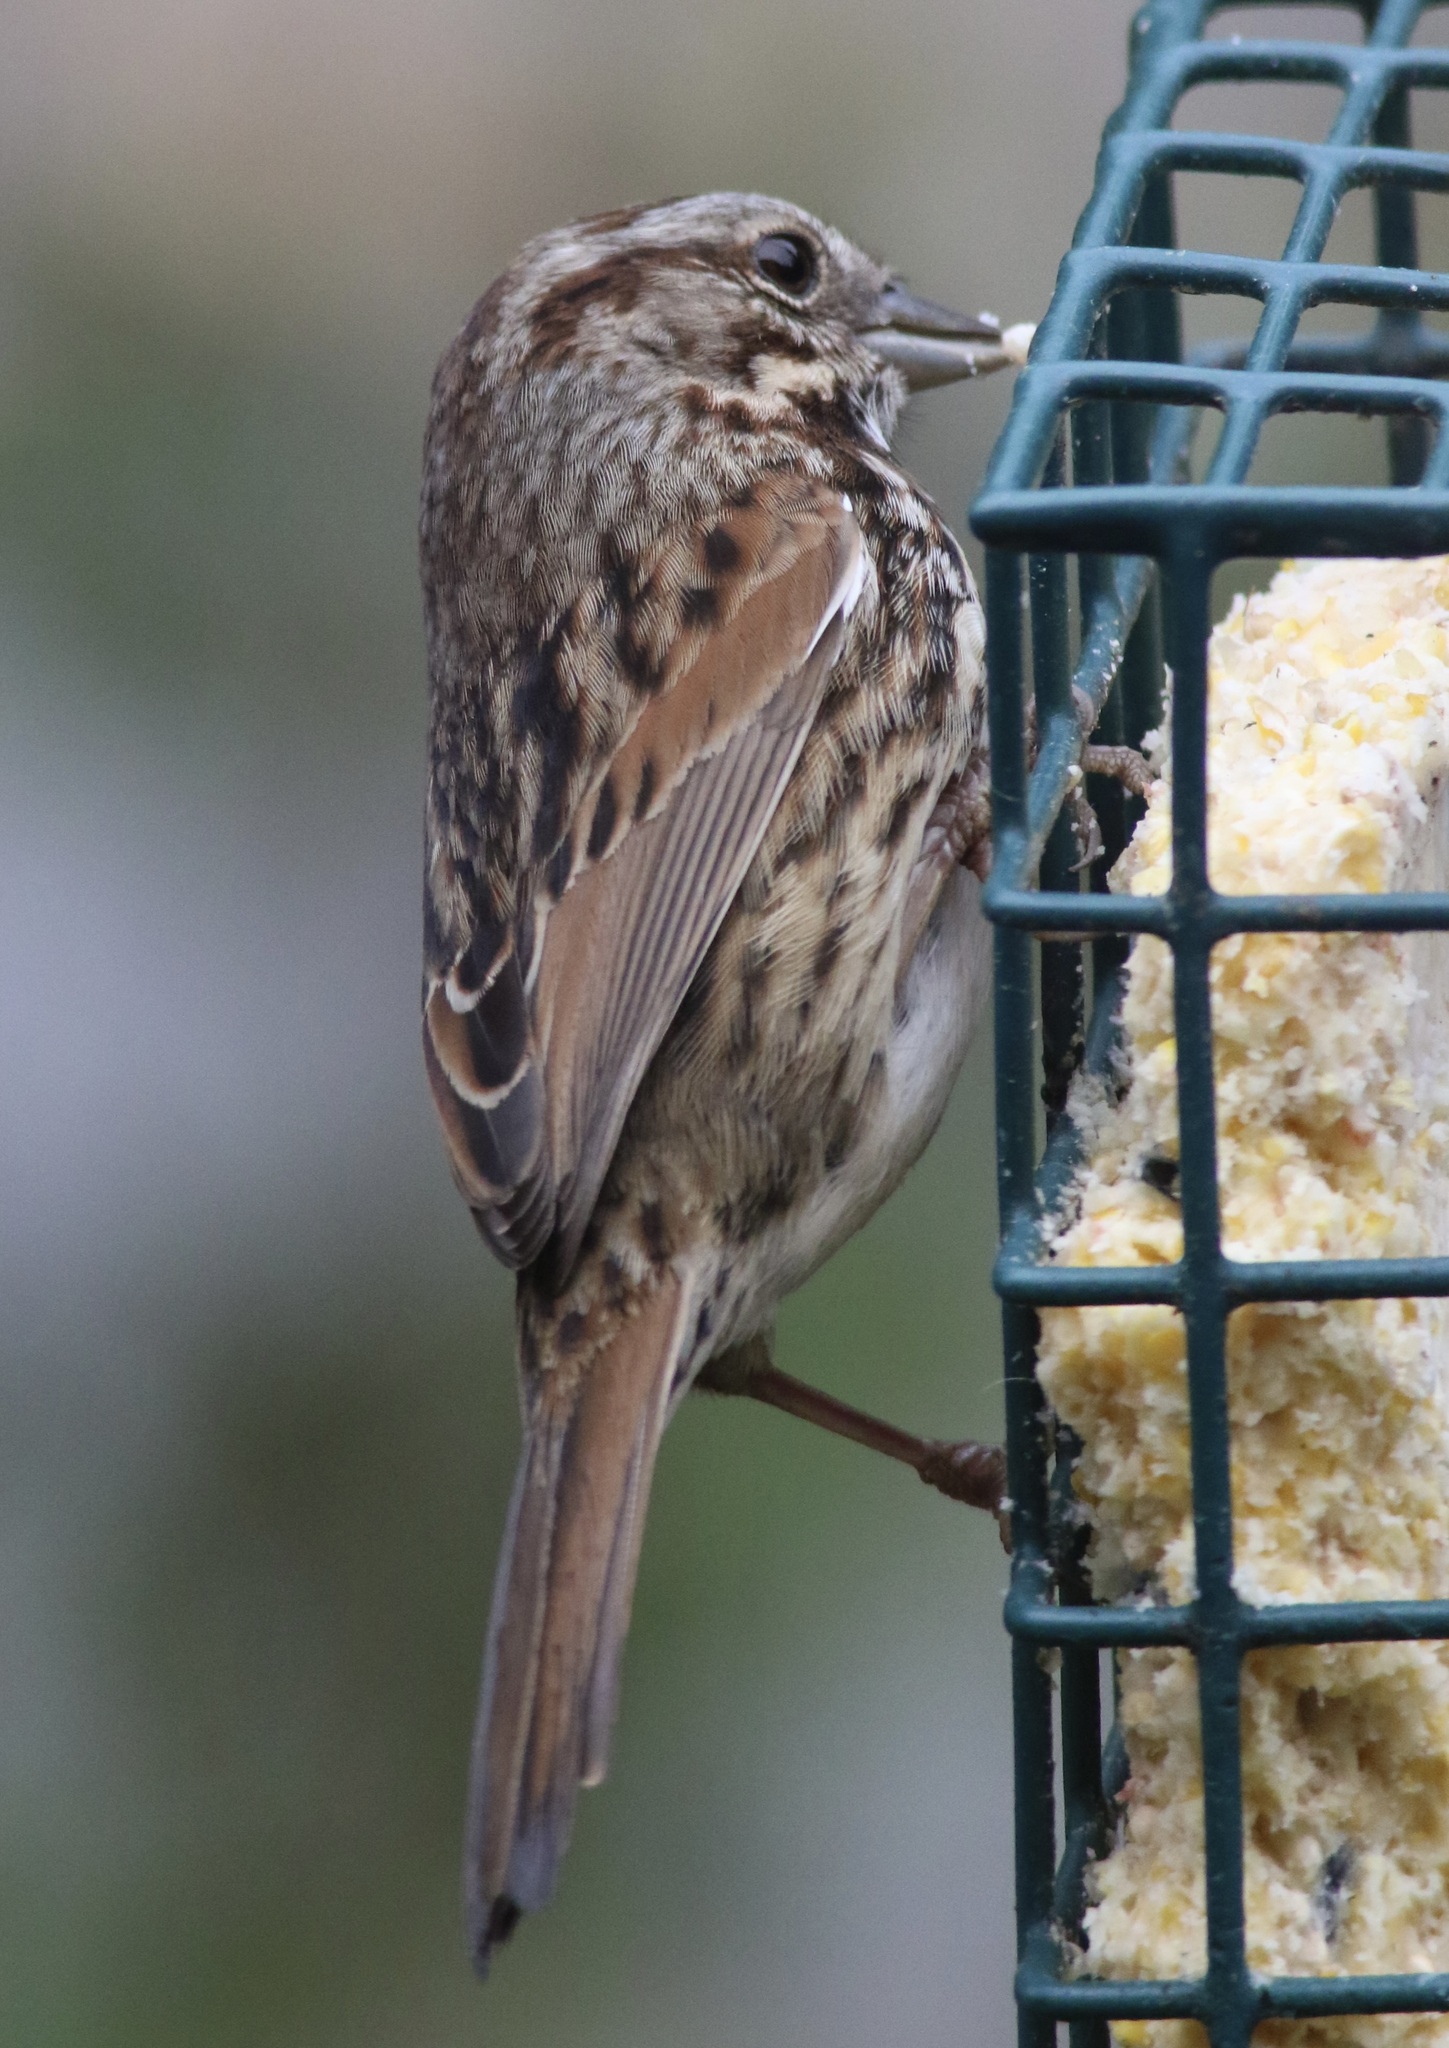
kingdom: Animalia
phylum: Chordata
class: Aves
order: Passeriformes
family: Passerellidae
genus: Melospiza
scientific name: Melospiza melodia
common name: Song sparrow
